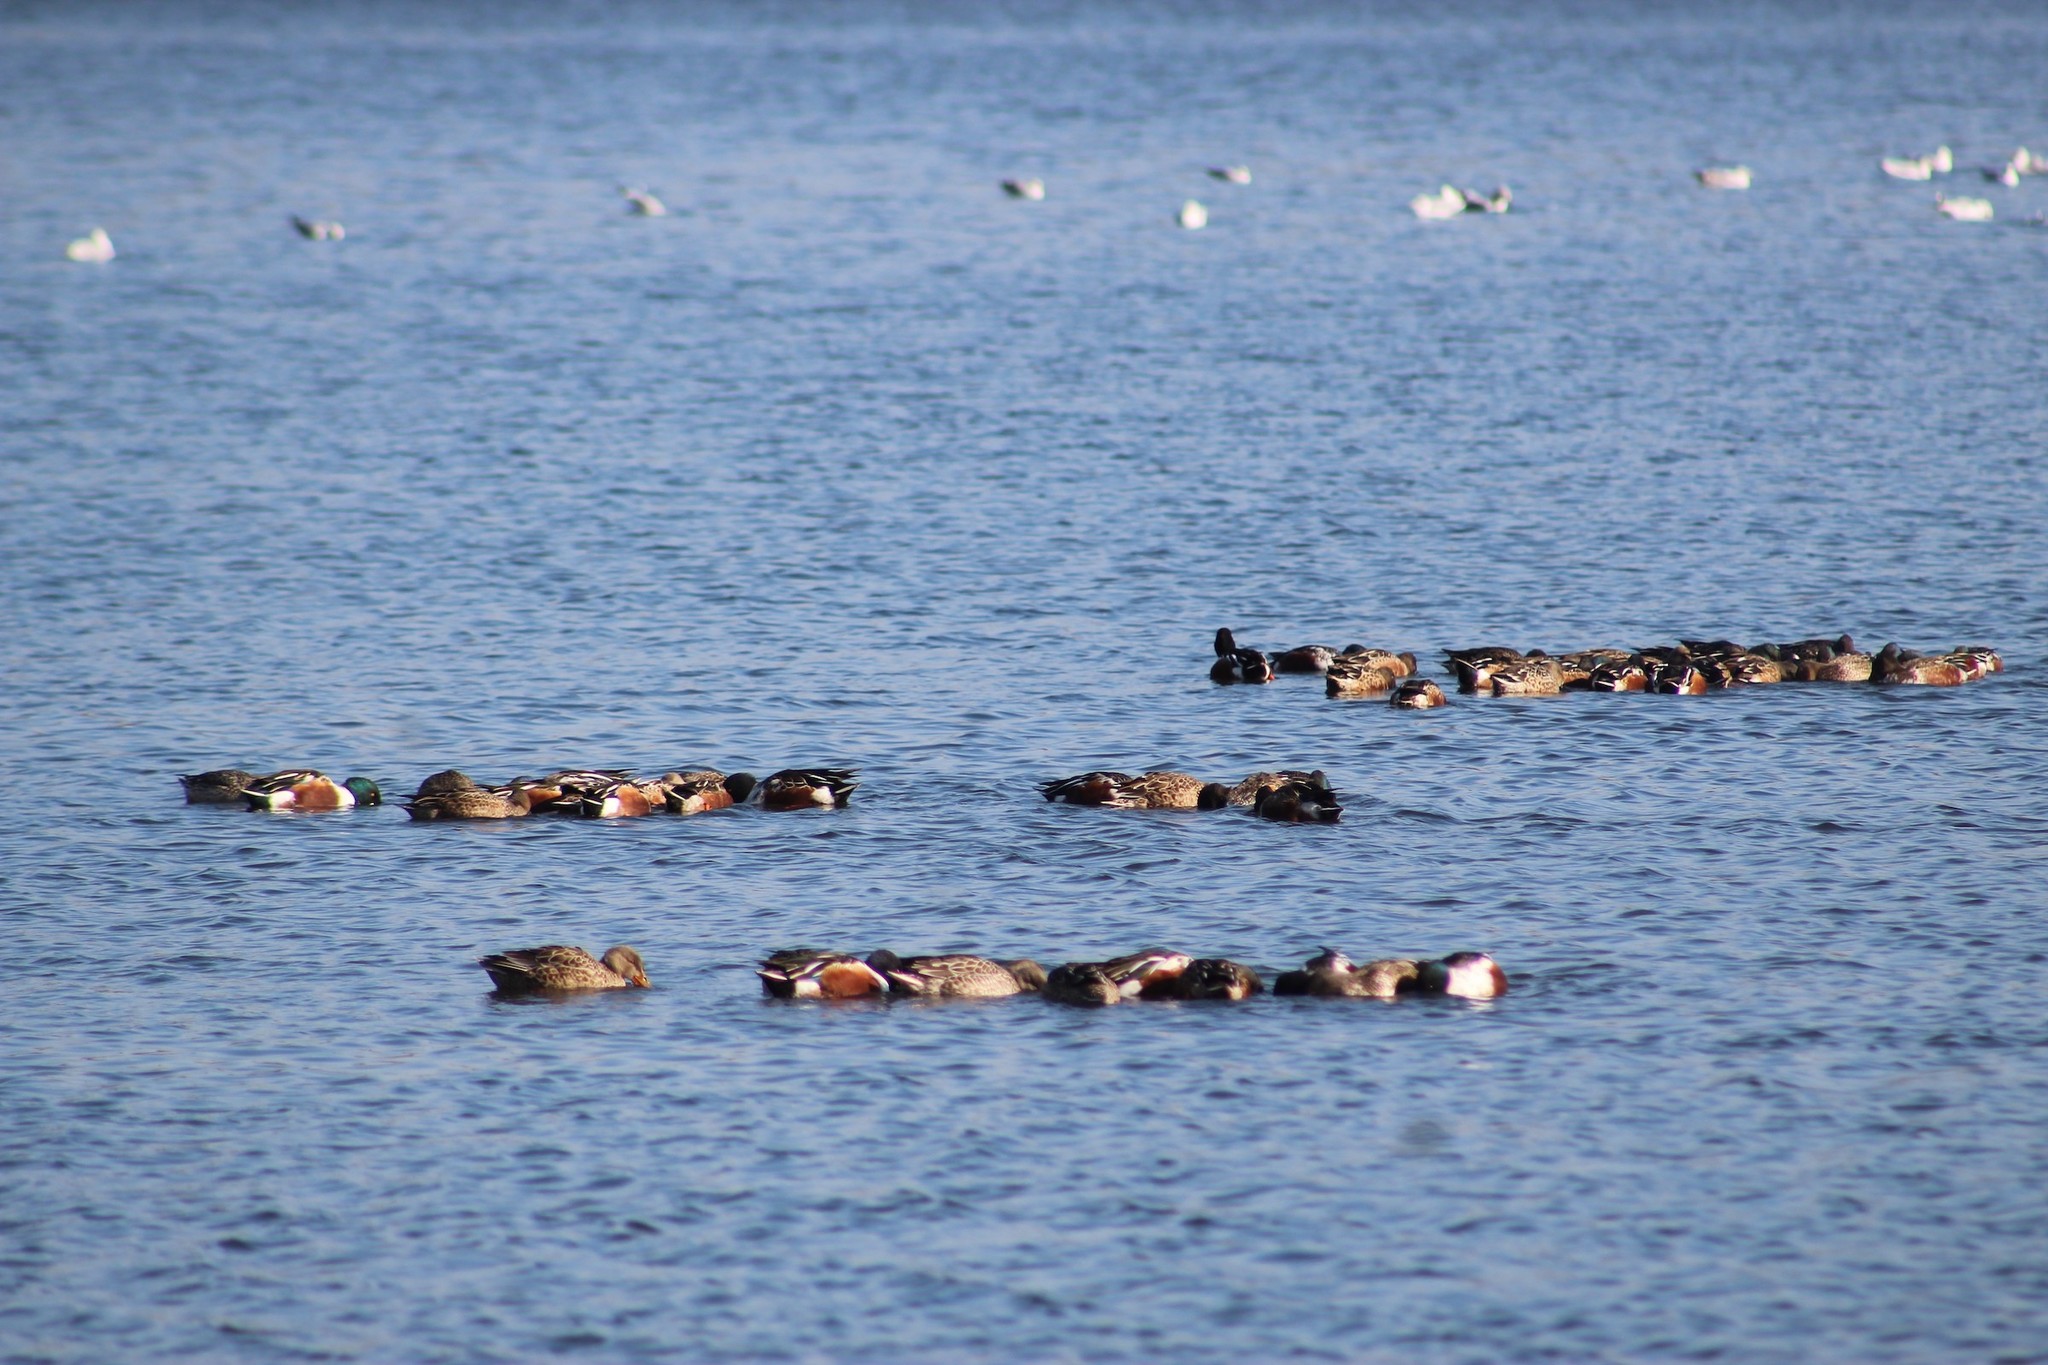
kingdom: Animalia
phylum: Chordata
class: Aves
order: Anseriformes
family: Anatidae
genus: Spatula
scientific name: Spatula clypeata
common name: Northern shoveler
